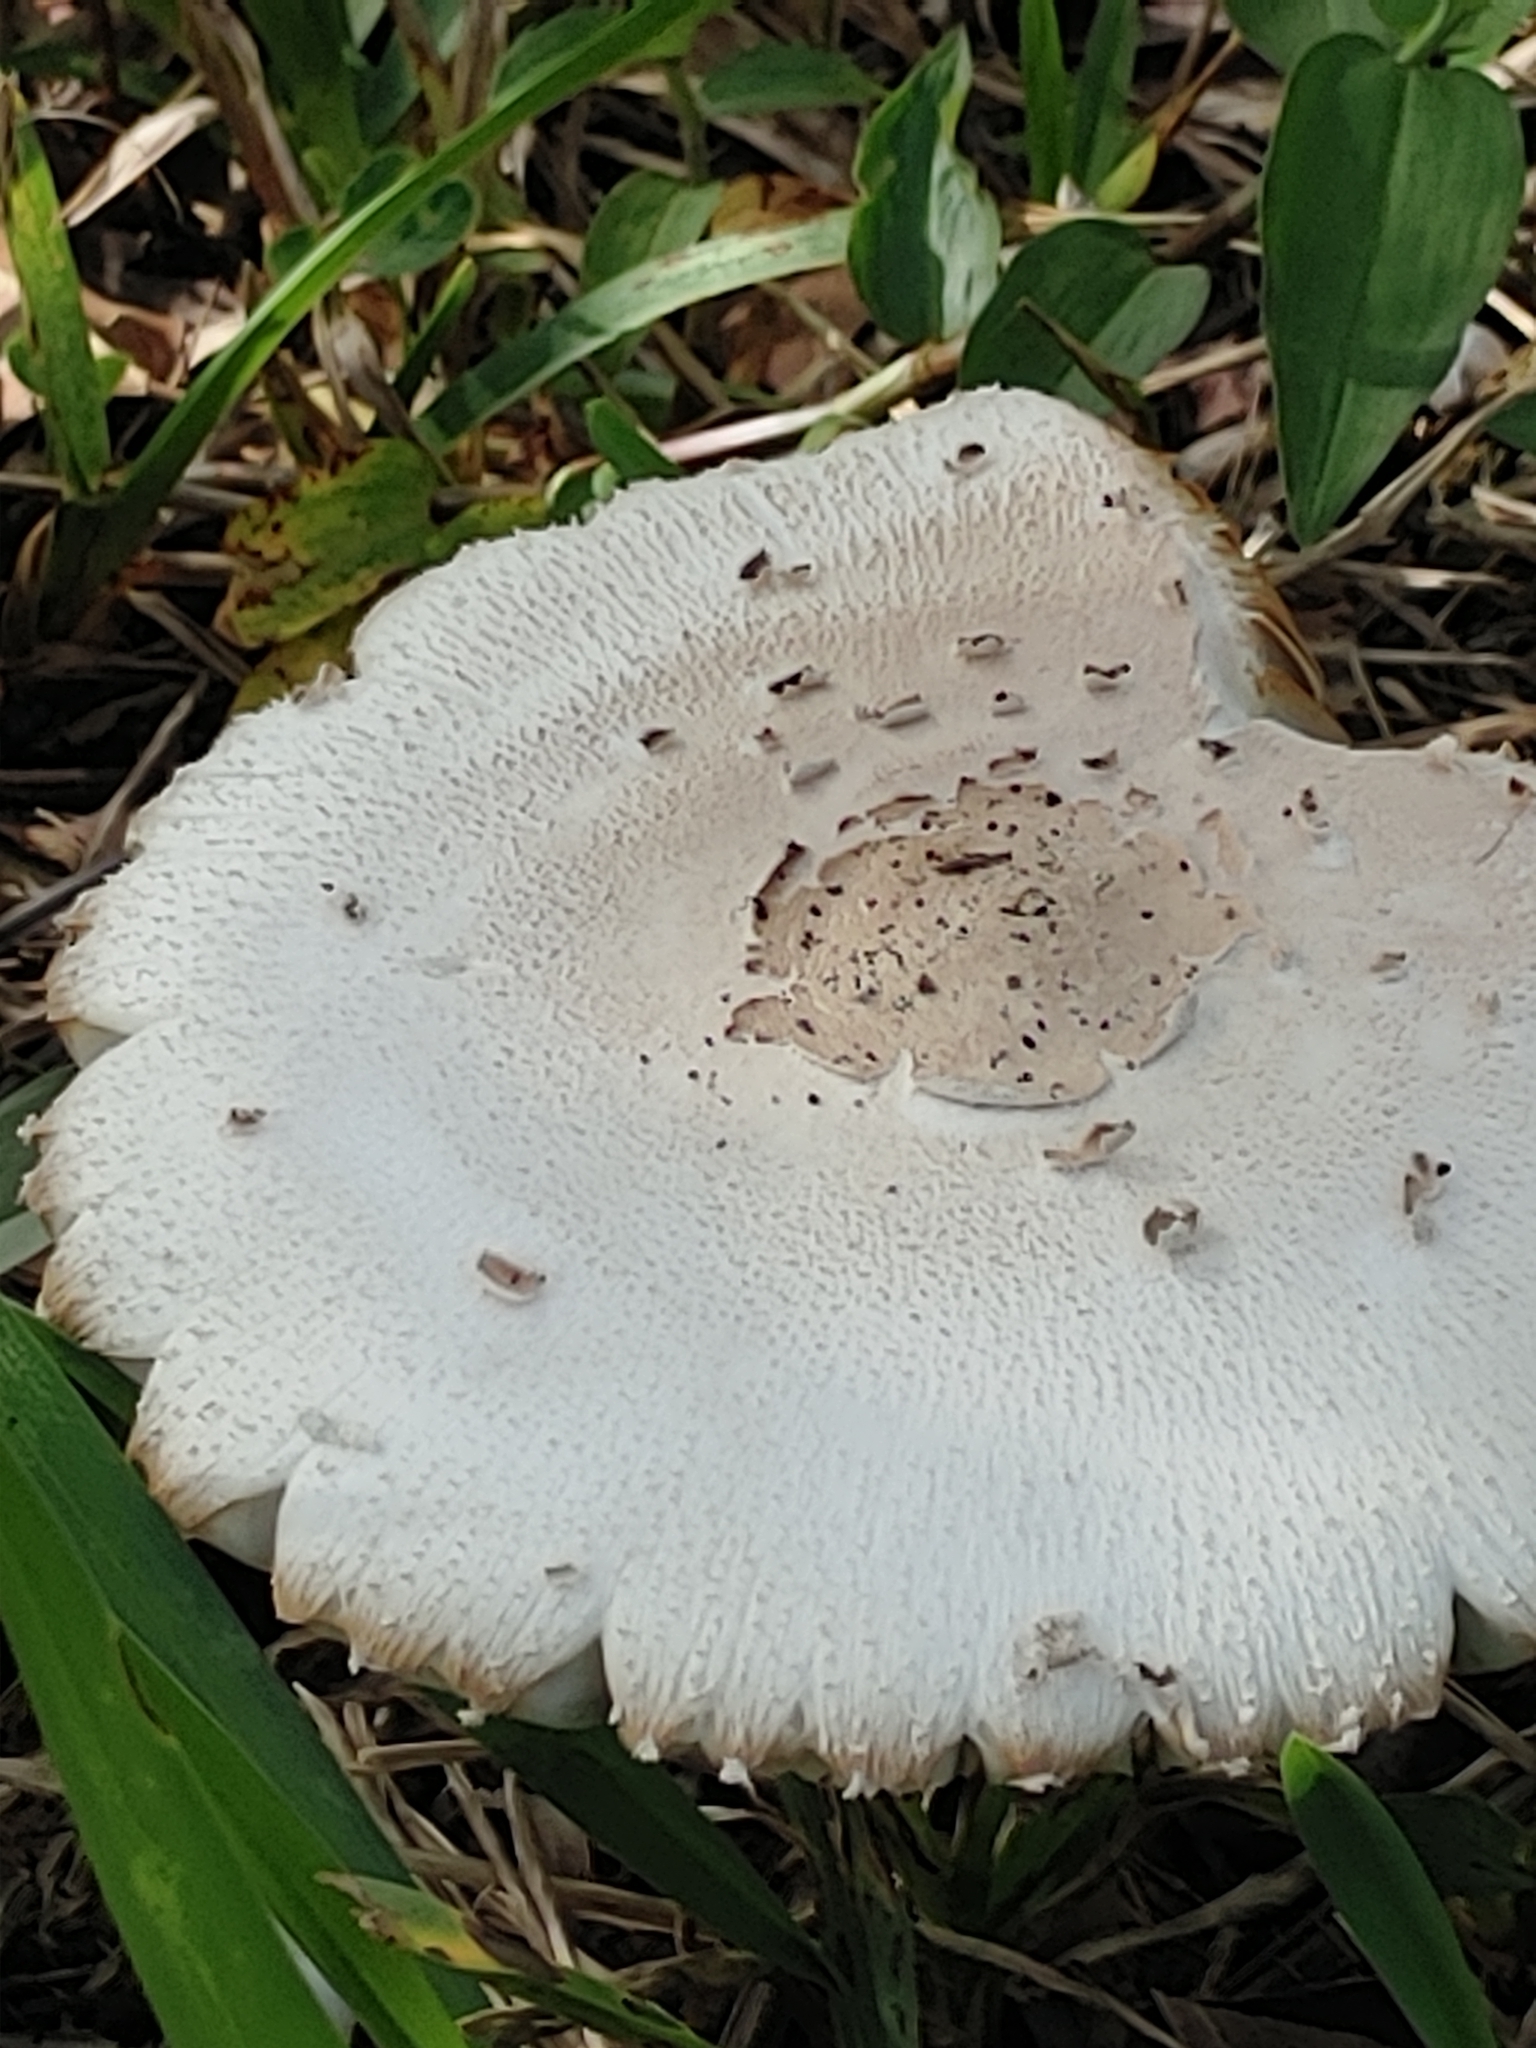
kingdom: Fungi
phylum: Basidiomycota
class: Agaricomycetes
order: Agaricales
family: Agaricaceae
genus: Chlorophyllum
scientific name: Chlorophyllum molybdites
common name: False parasol
